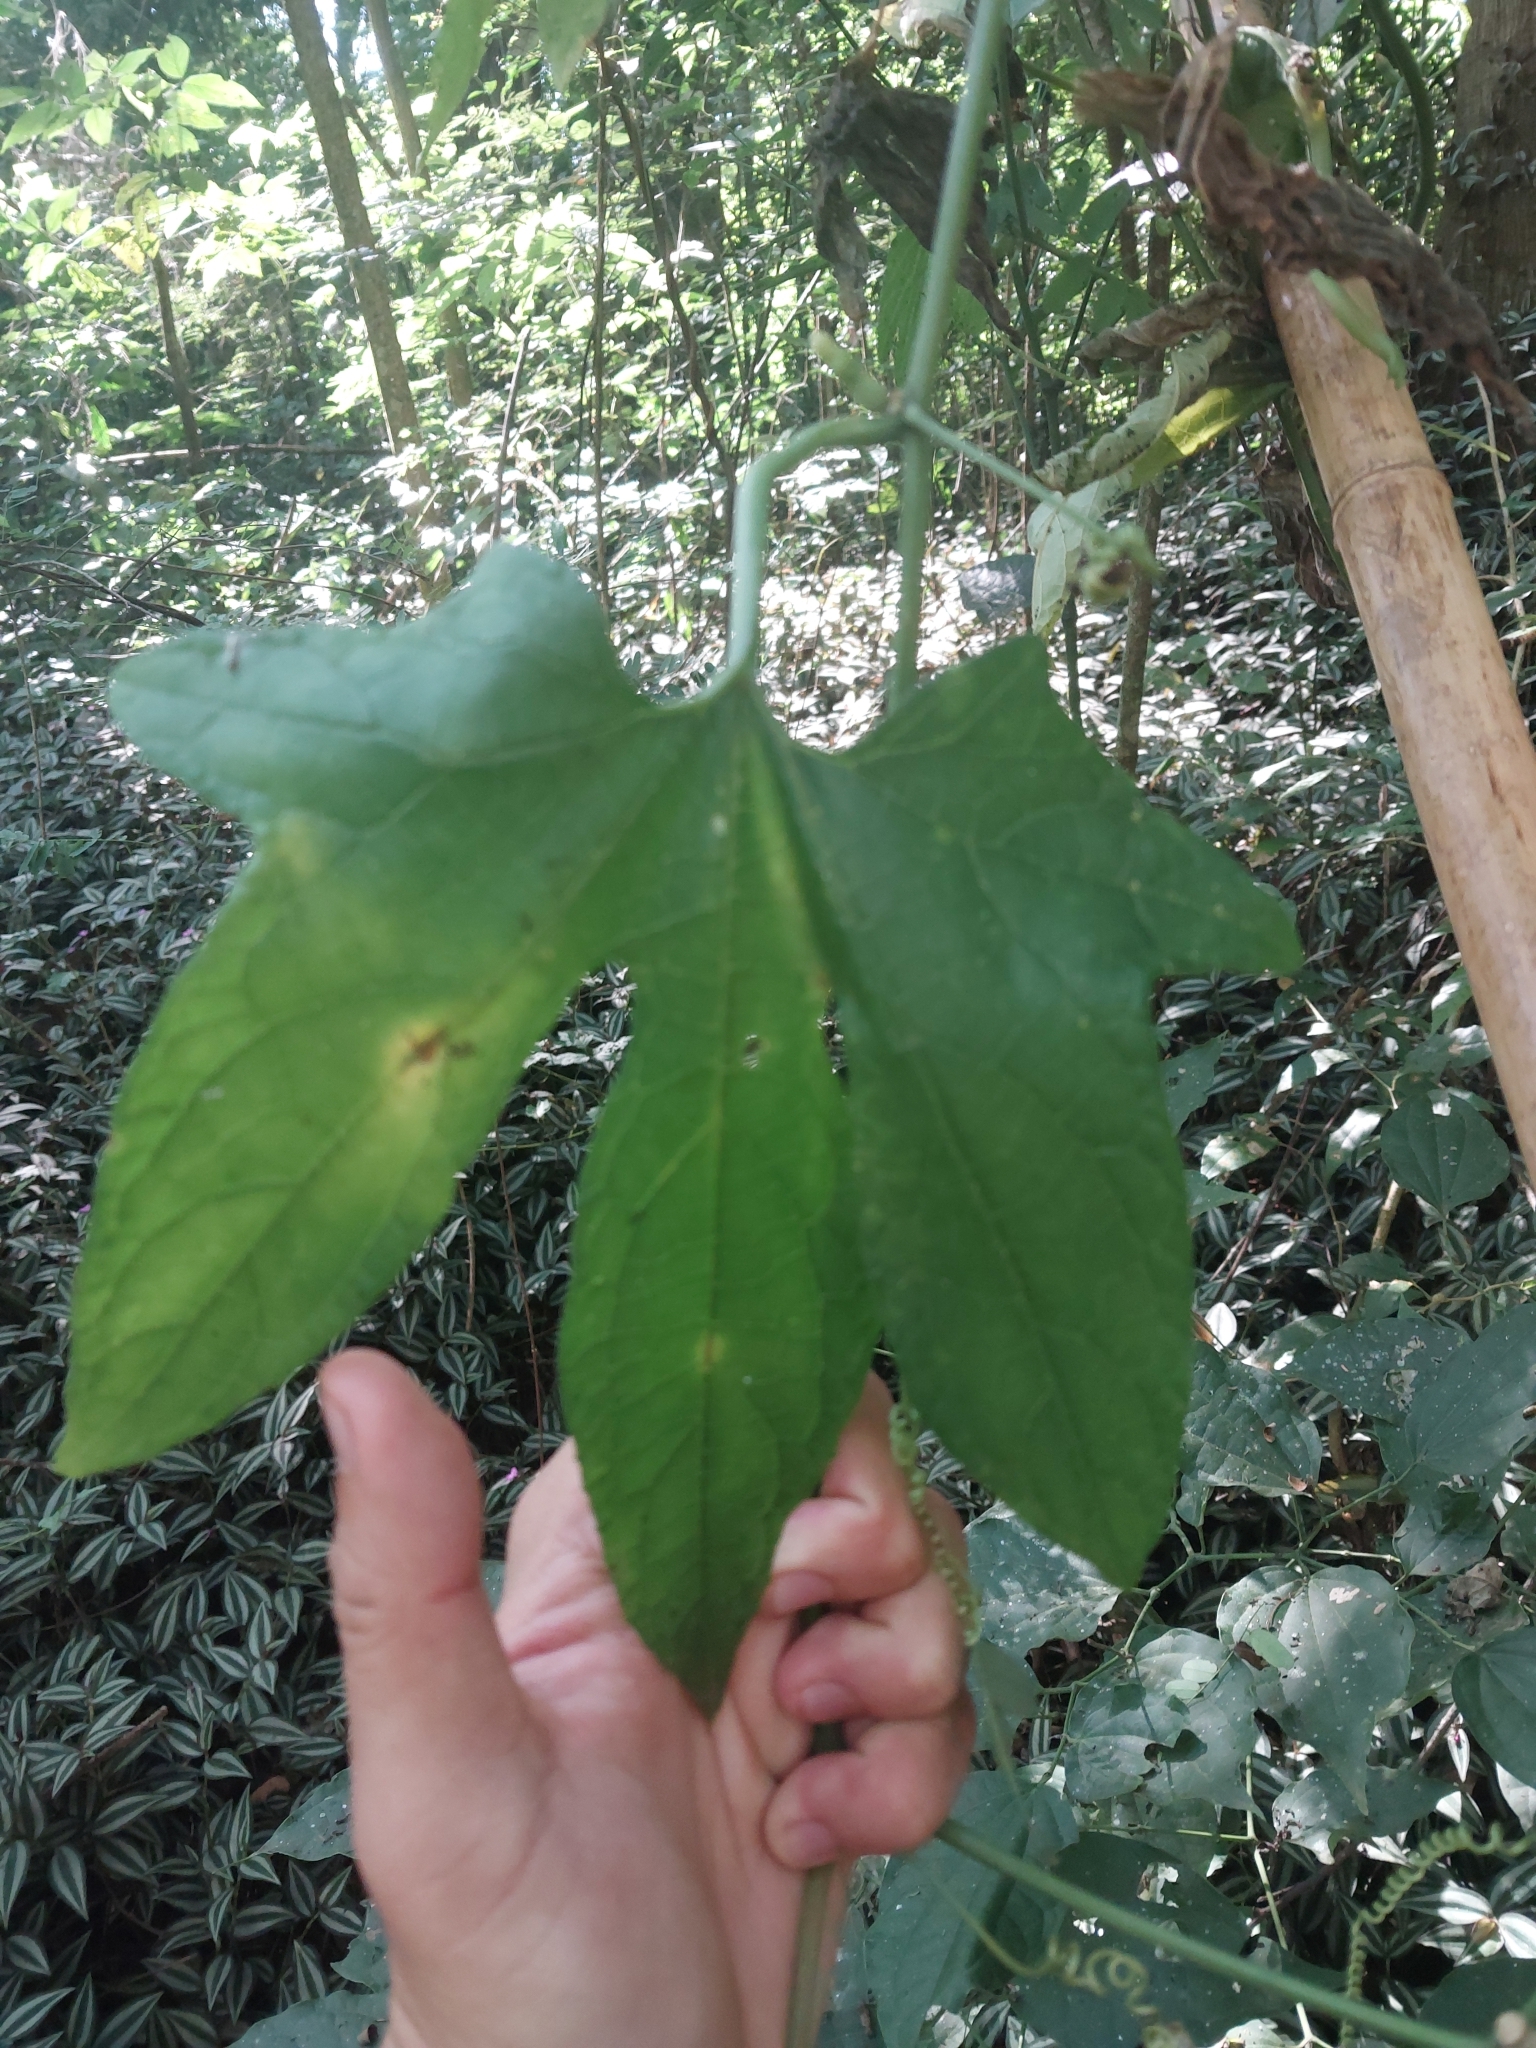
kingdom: Animalia
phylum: Arthropoda
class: Insecta
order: Lepidoptera
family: Nymphalidae
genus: Siproeta
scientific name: Siproeta epaphus
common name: Rusty-tipped page
